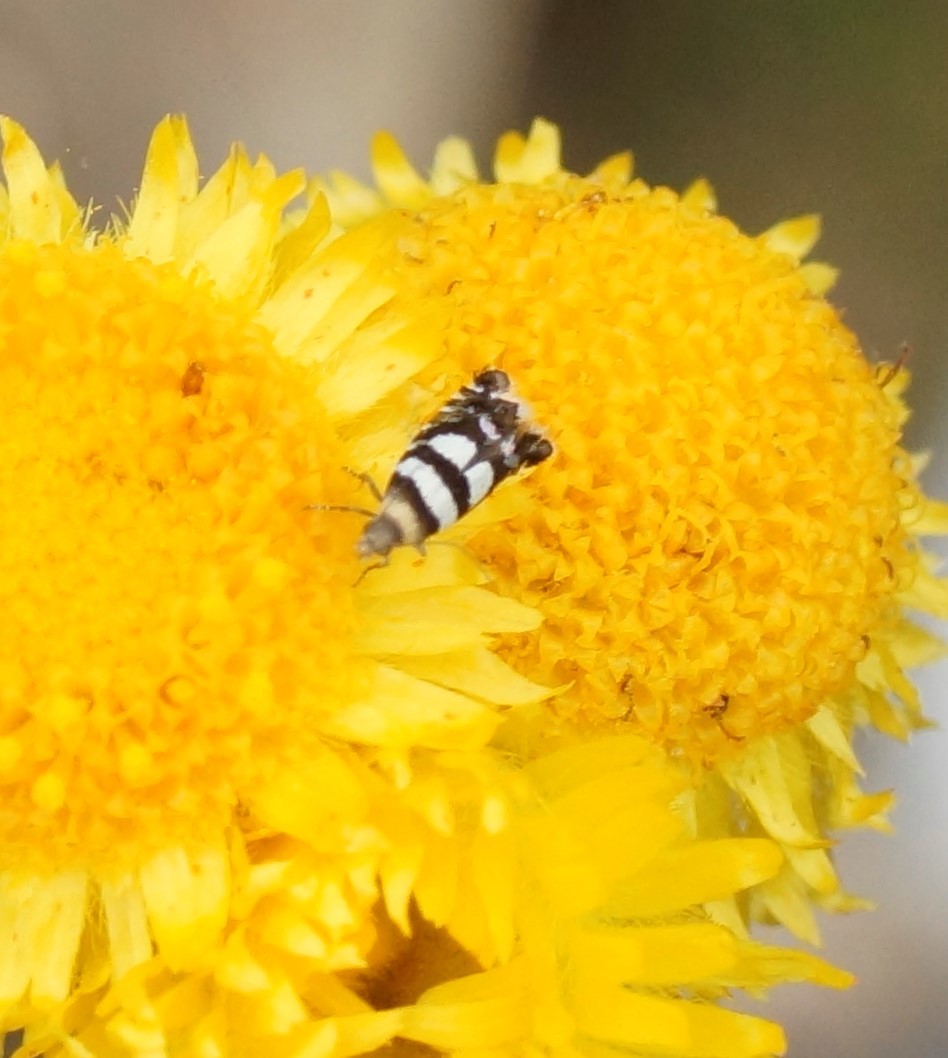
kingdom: Animalia
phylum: Arthropoda
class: Insecta
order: Lepidoptera
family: Glyphipterigidae
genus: Glyphipterix
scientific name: Glyphipterix meteora
